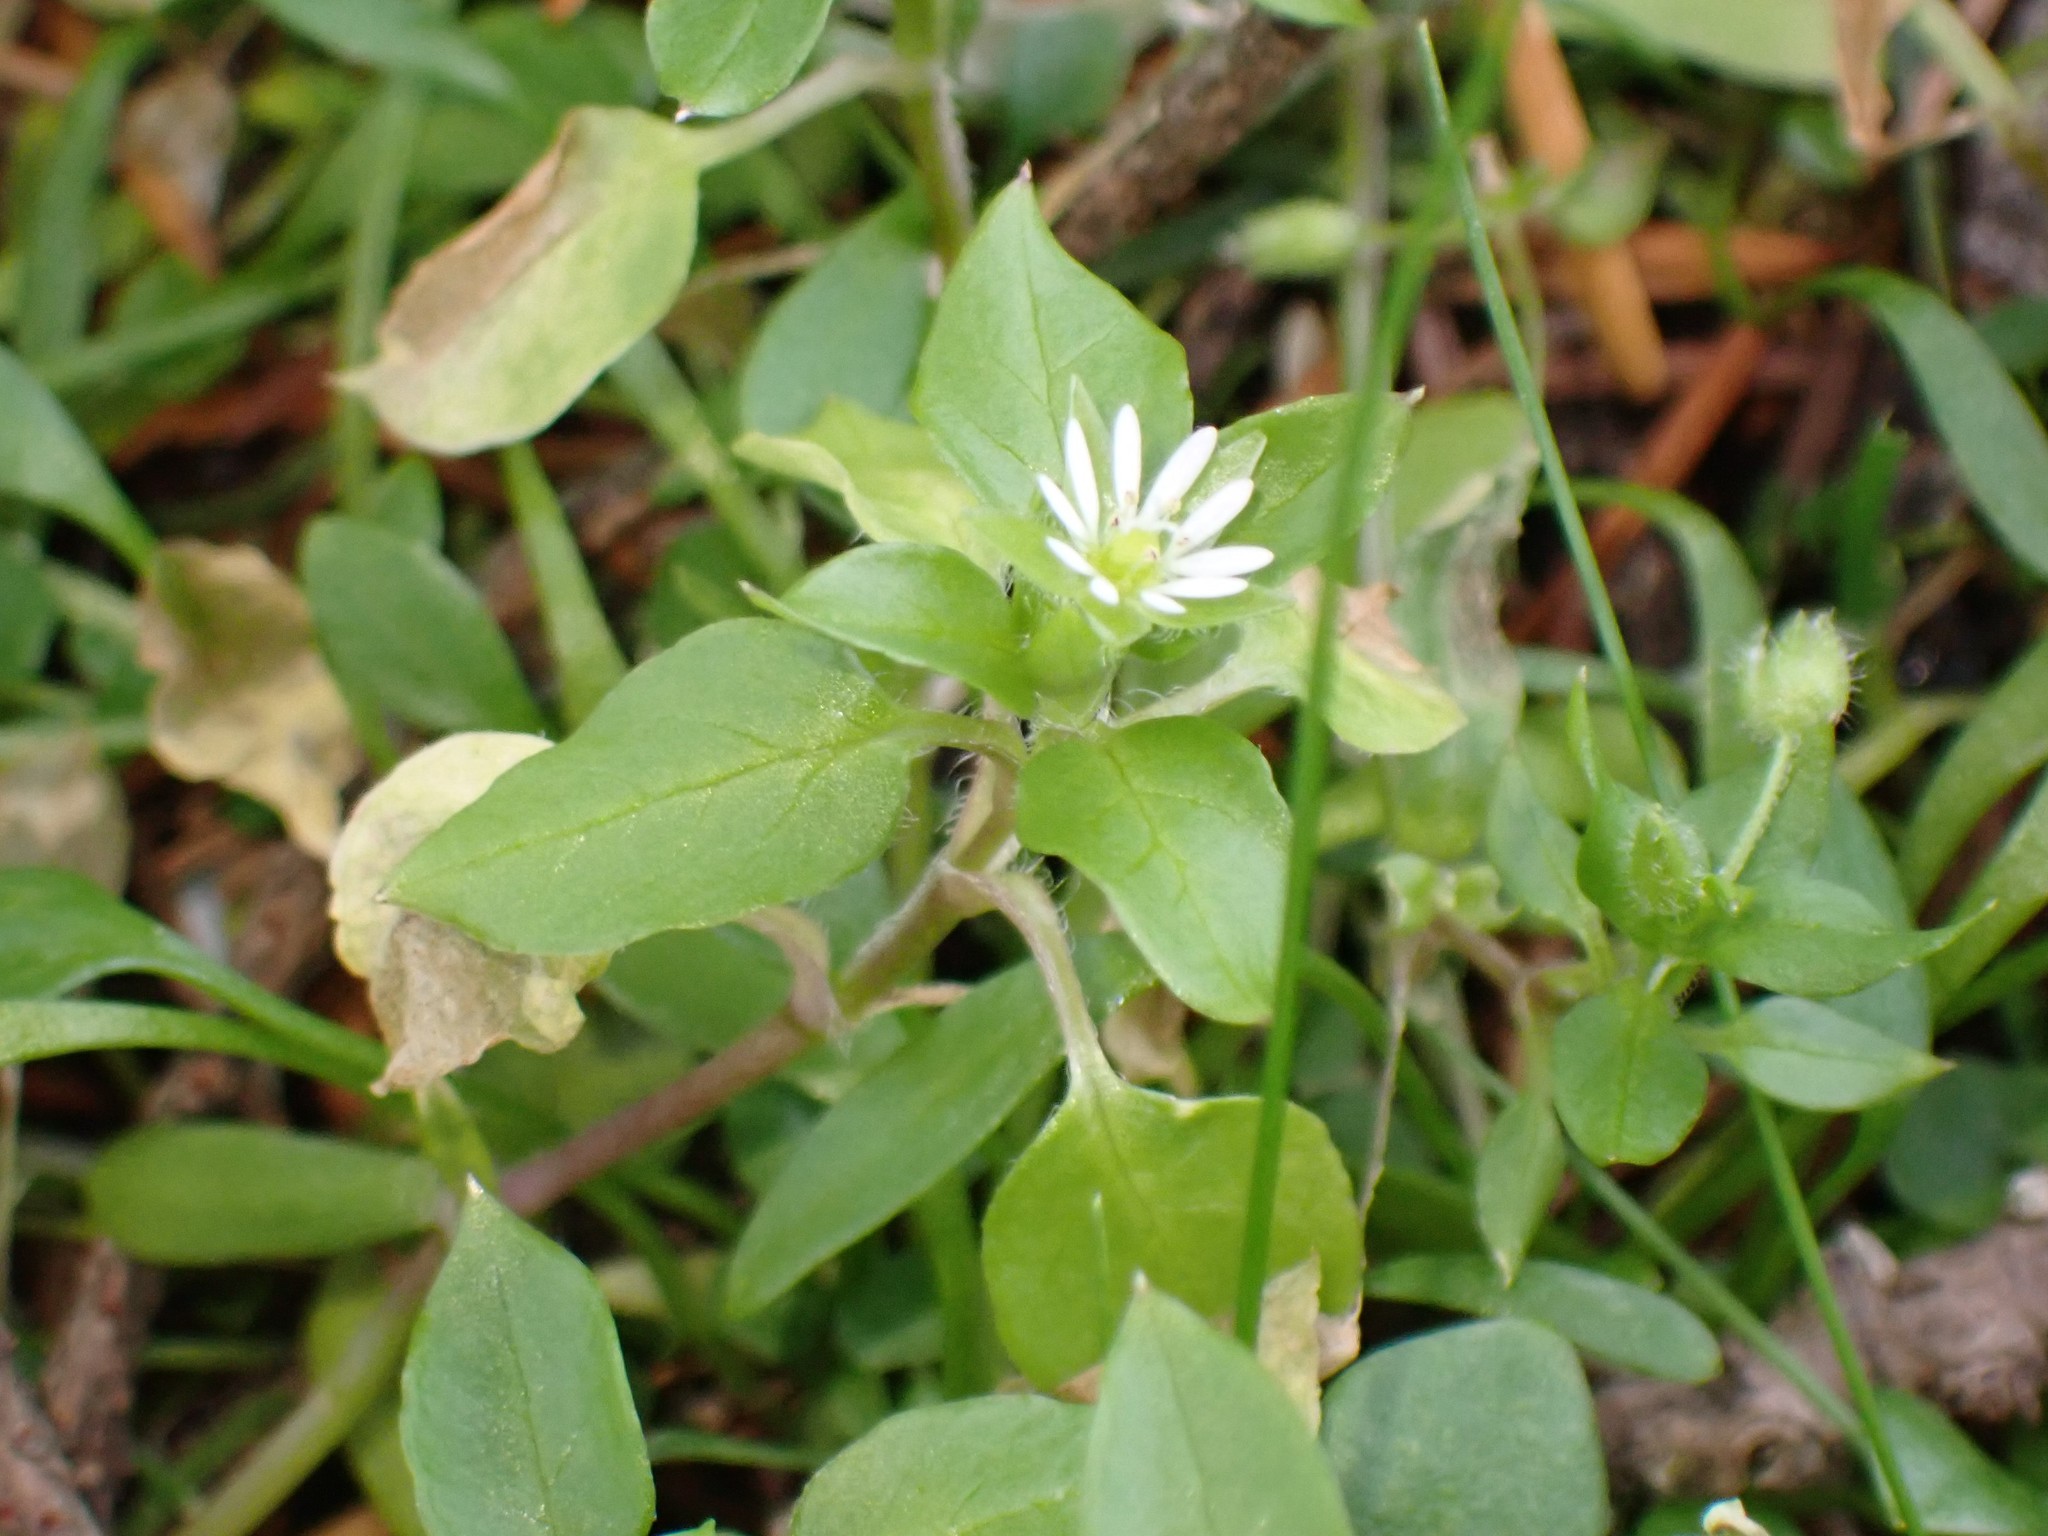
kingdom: Plantae
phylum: Tracheophyta
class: Magnoliopsida
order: Caryophyllales
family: Caryophyllaceae
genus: Stellaria
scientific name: Stellaria media
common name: Common chickweed
